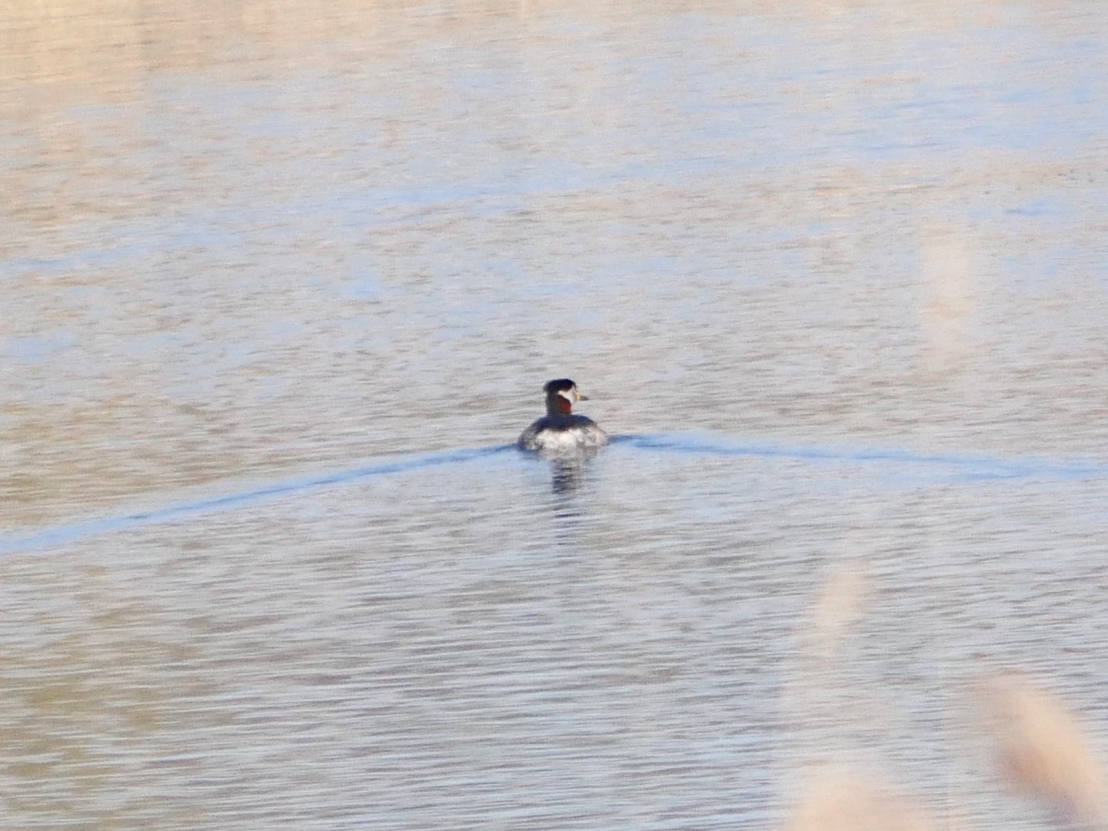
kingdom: Animalia
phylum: Chordata
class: Aves
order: Podicipediformes
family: Podicipedidae
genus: Podiceps
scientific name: Podiceps grisegena
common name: Red-necked grebe
